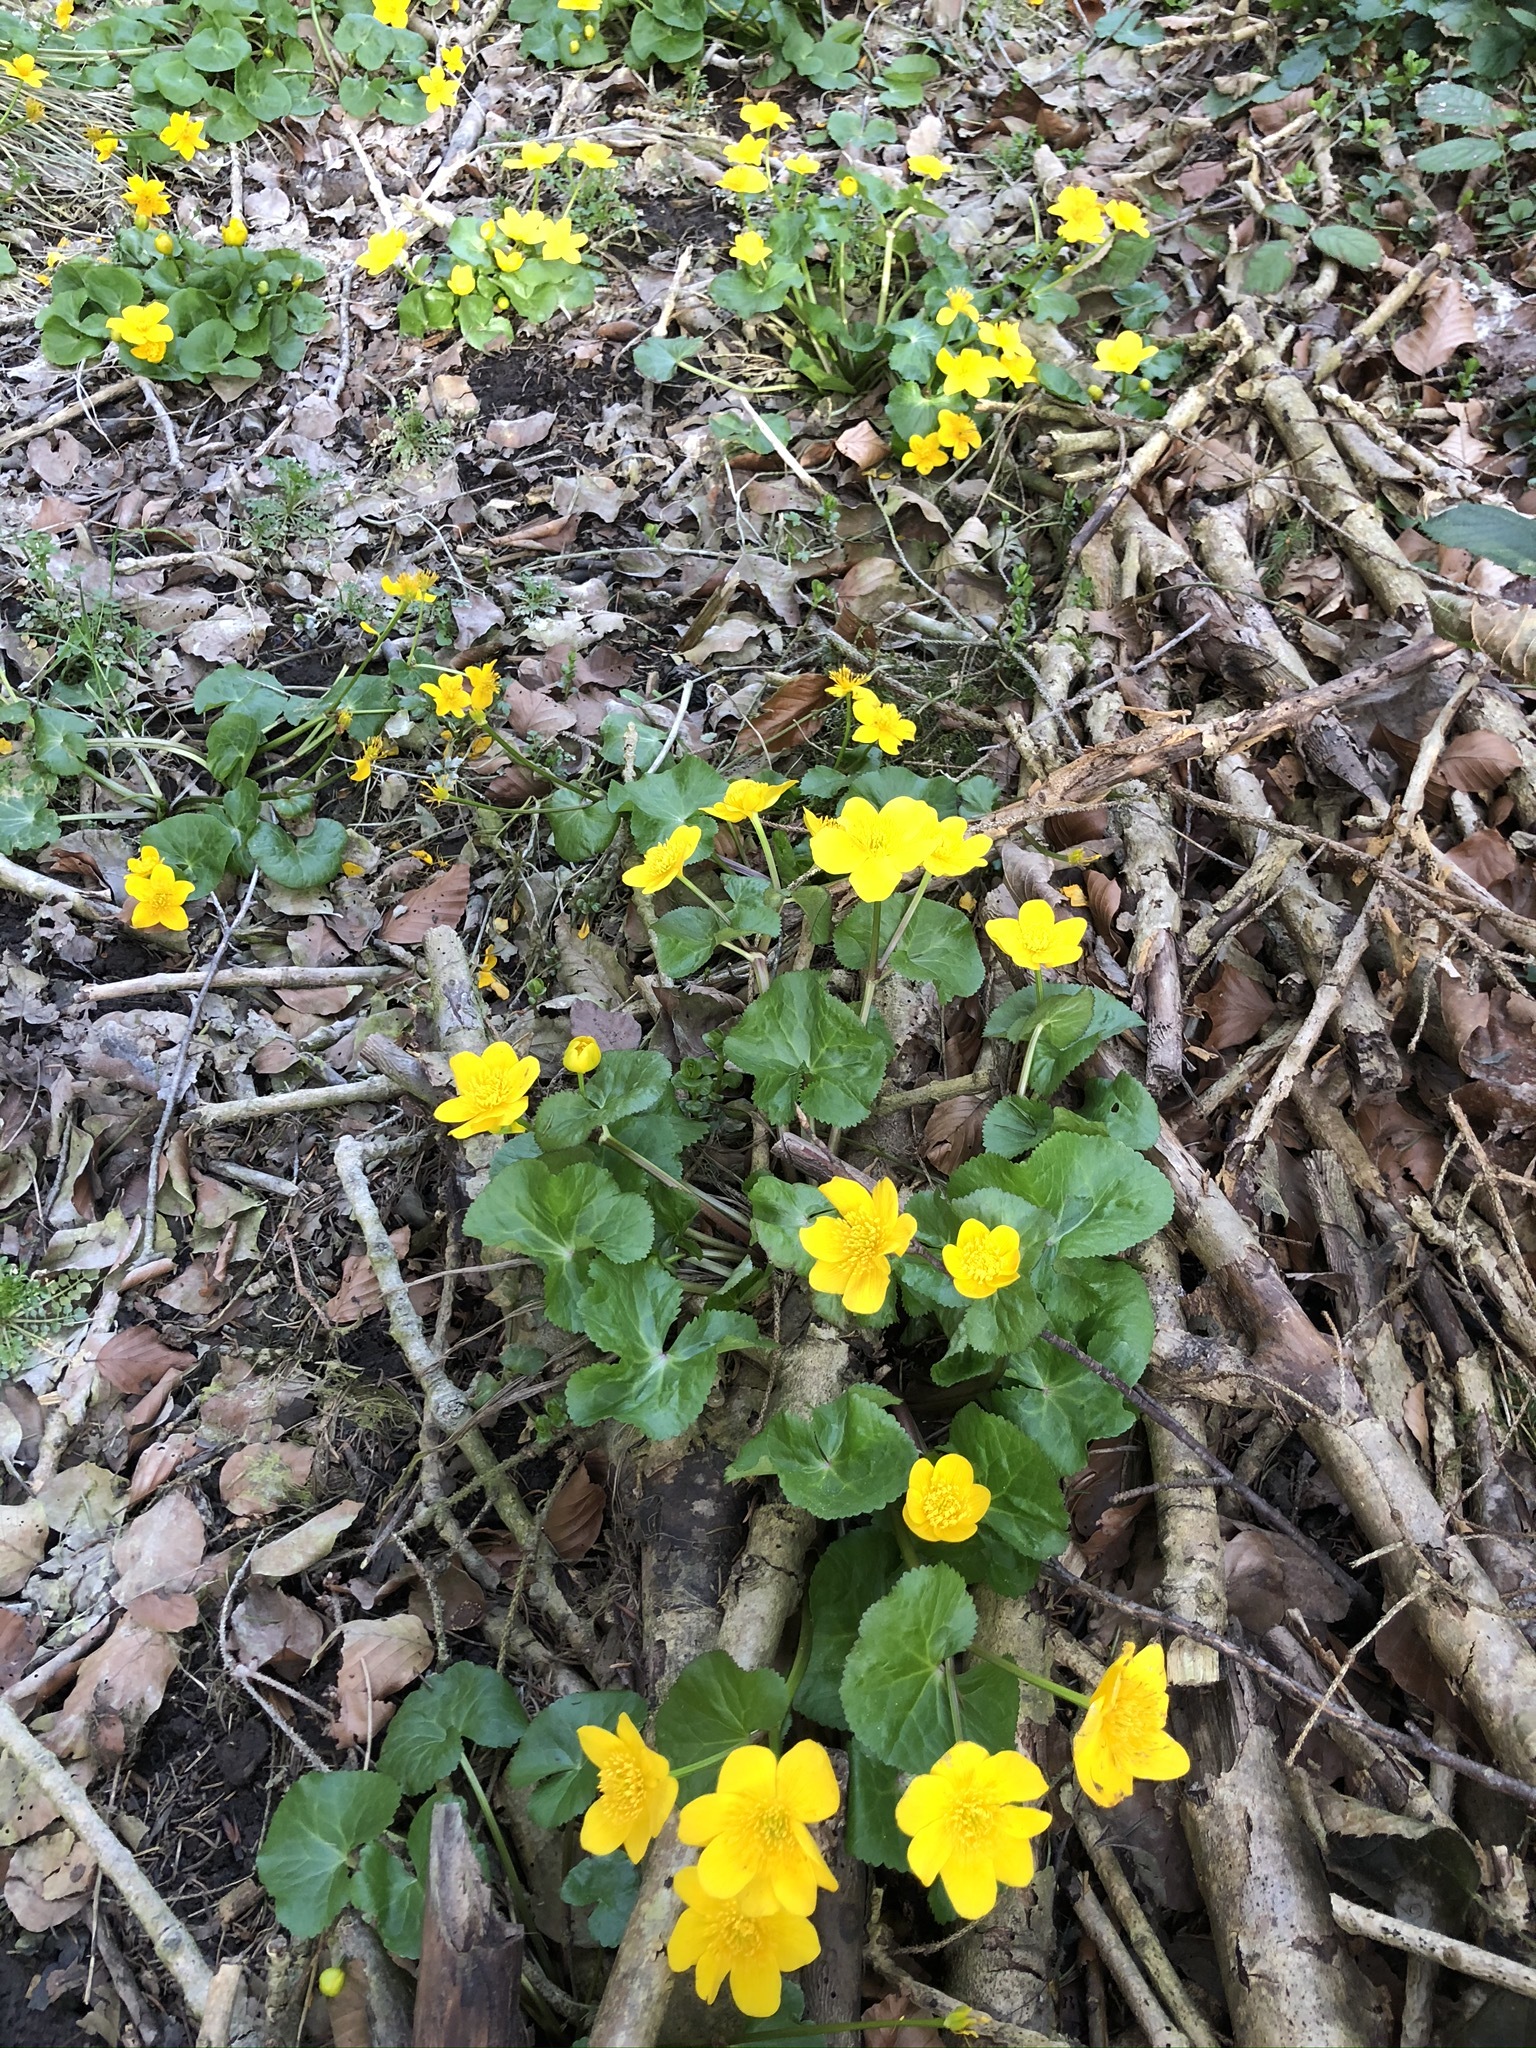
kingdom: Plantae
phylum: Tracheophyta
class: Magnoliopsida
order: Ranunculales
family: Ranunculaceae
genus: Caltha
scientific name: Caltha palustris
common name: Marsh marigold
